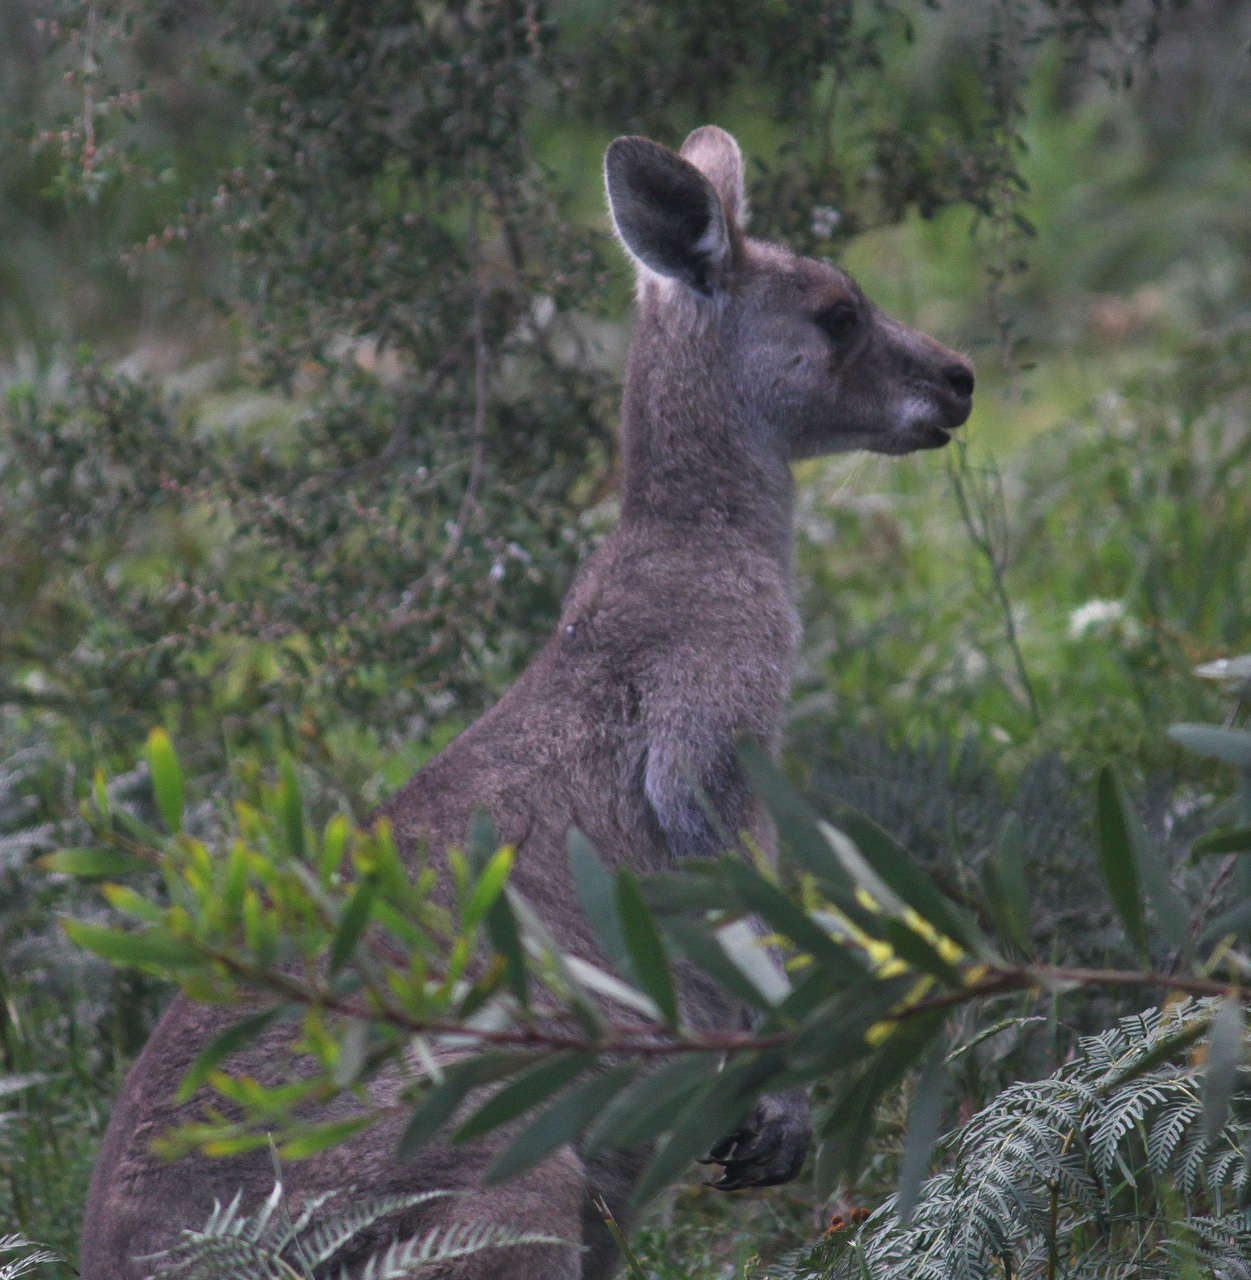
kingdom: Animalia
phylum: Chordata
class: Mammalia
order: Diprotodontia
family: Macropodidae
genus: Macropus
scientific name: Macropus giganteus
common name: Eastern grey kangaroo
